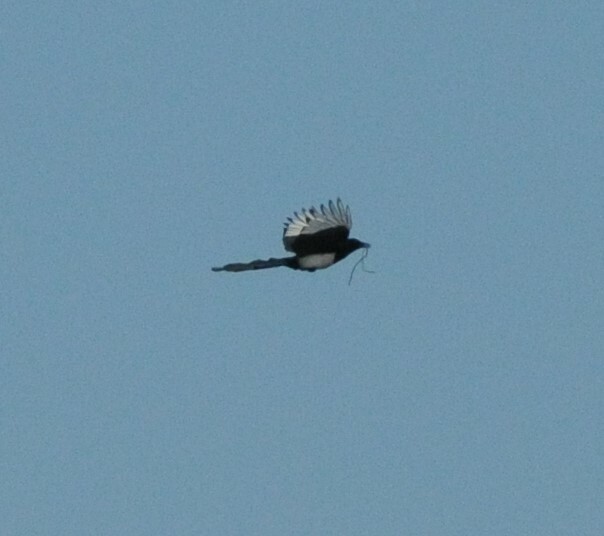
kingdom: Animalia
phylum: Chordata
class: Aves
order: Passeriformes
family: Corvidae
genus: Pica
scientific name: Pica pica
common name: Eurasian magpie
